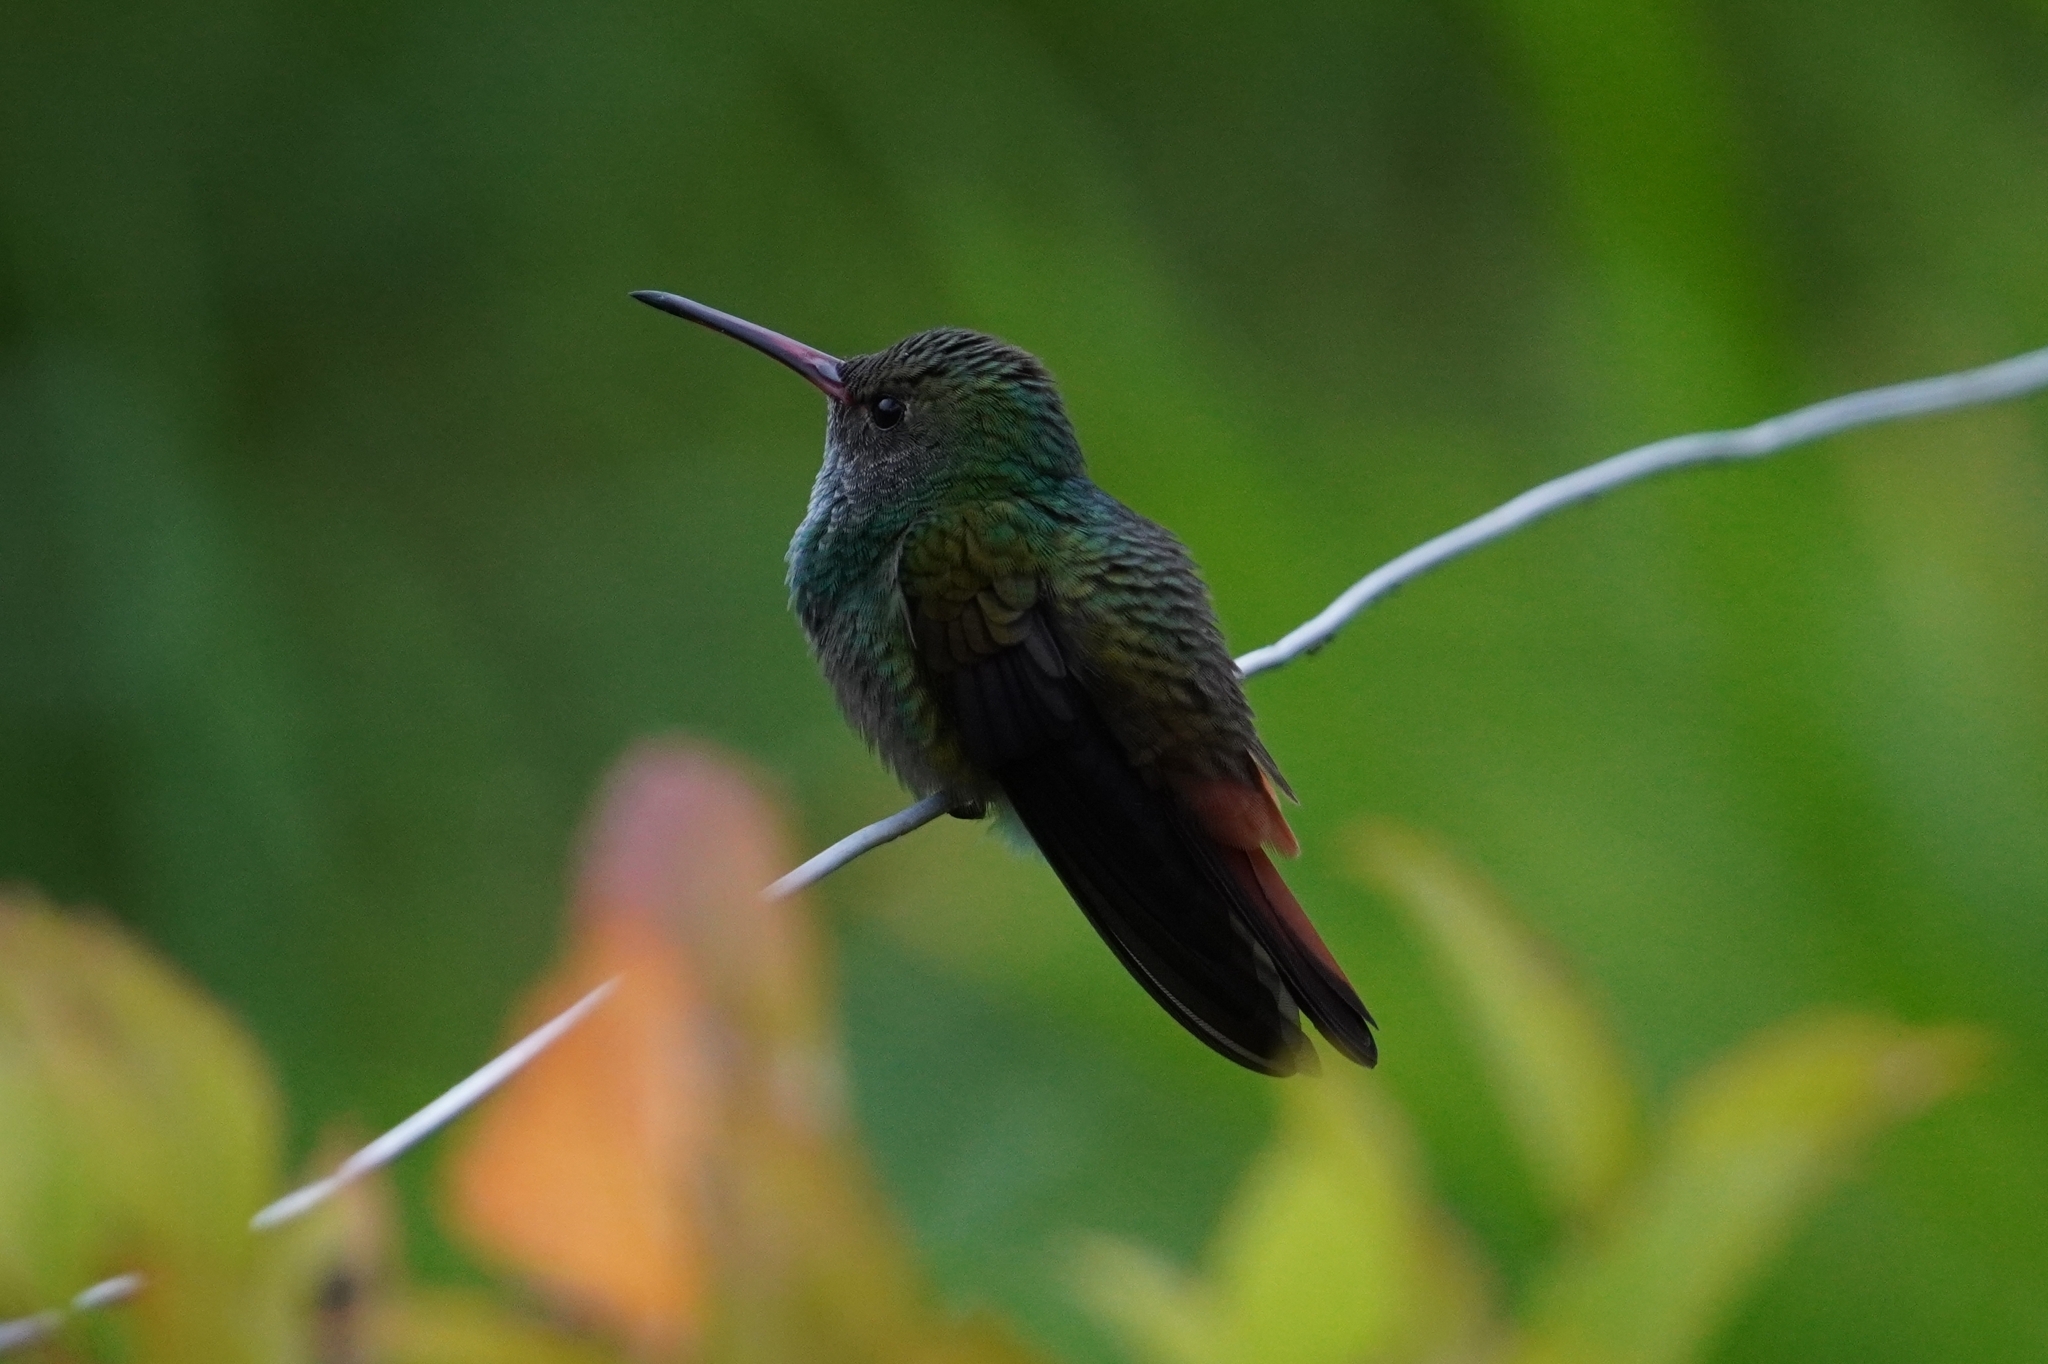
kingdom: Animalia
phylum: Chordata
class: Aves
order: Apodiformes
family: Trochilidae
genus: Amazilia
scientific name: Amazilia tzacatl
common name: Rufous-tailed hummingbird
